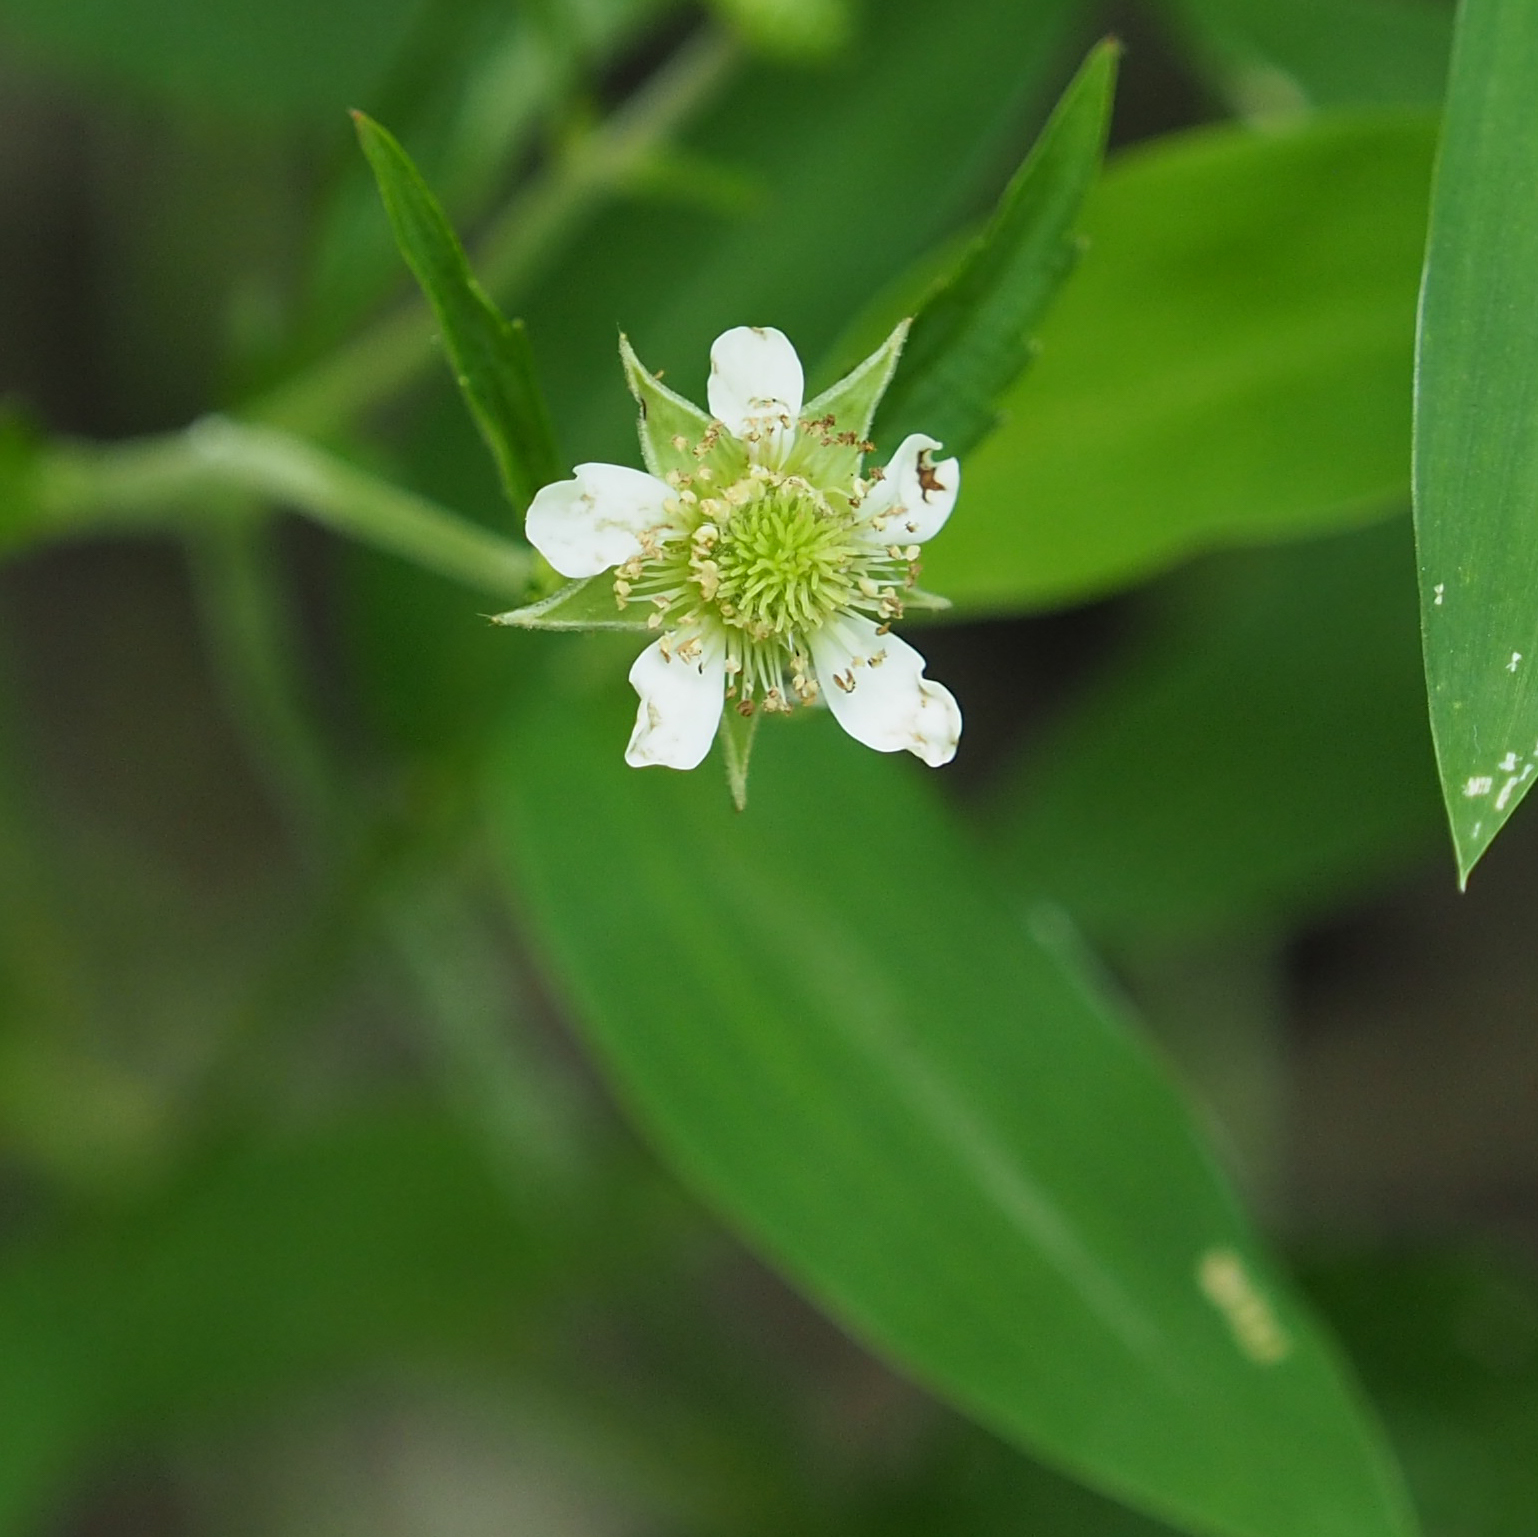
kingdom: Plantae
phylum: Tracheophyta
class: Magnoliopsida
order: Rosales
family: Rosaceae
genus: Geum
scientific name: Geum canadense
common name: White avens
